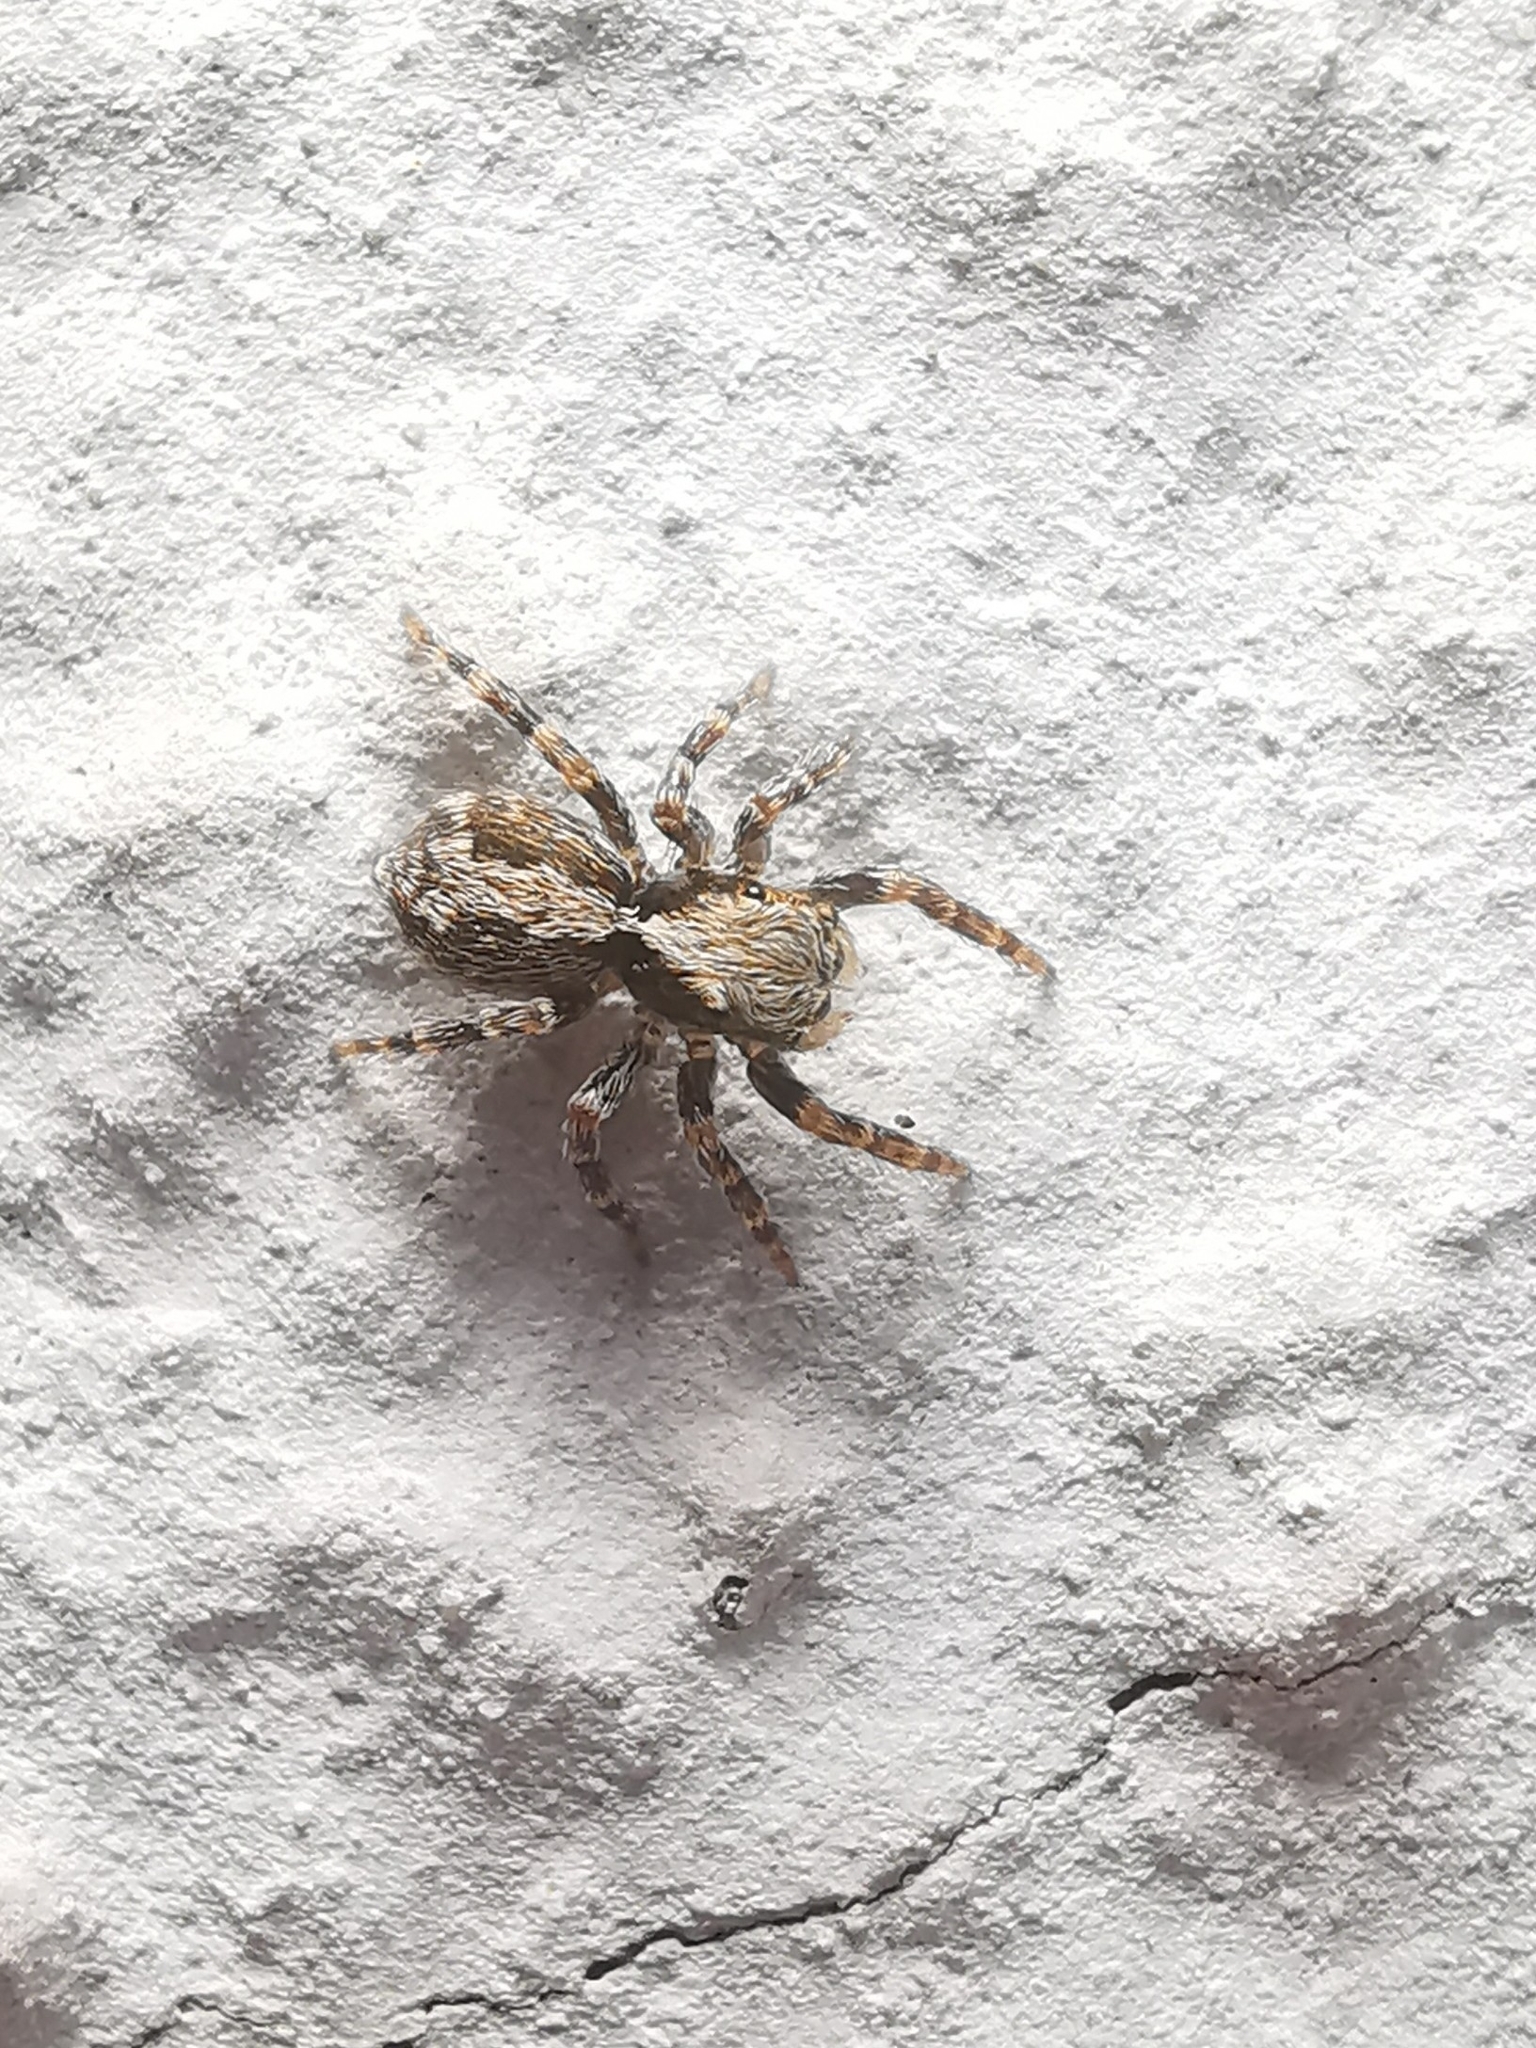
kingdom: Animalia
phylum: Arthropoda
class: Arachnida
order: Araneae
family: Salticidae
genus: Pseudeuophrys
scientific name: Pseudeuophrys lanigera
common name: Jumping spider
